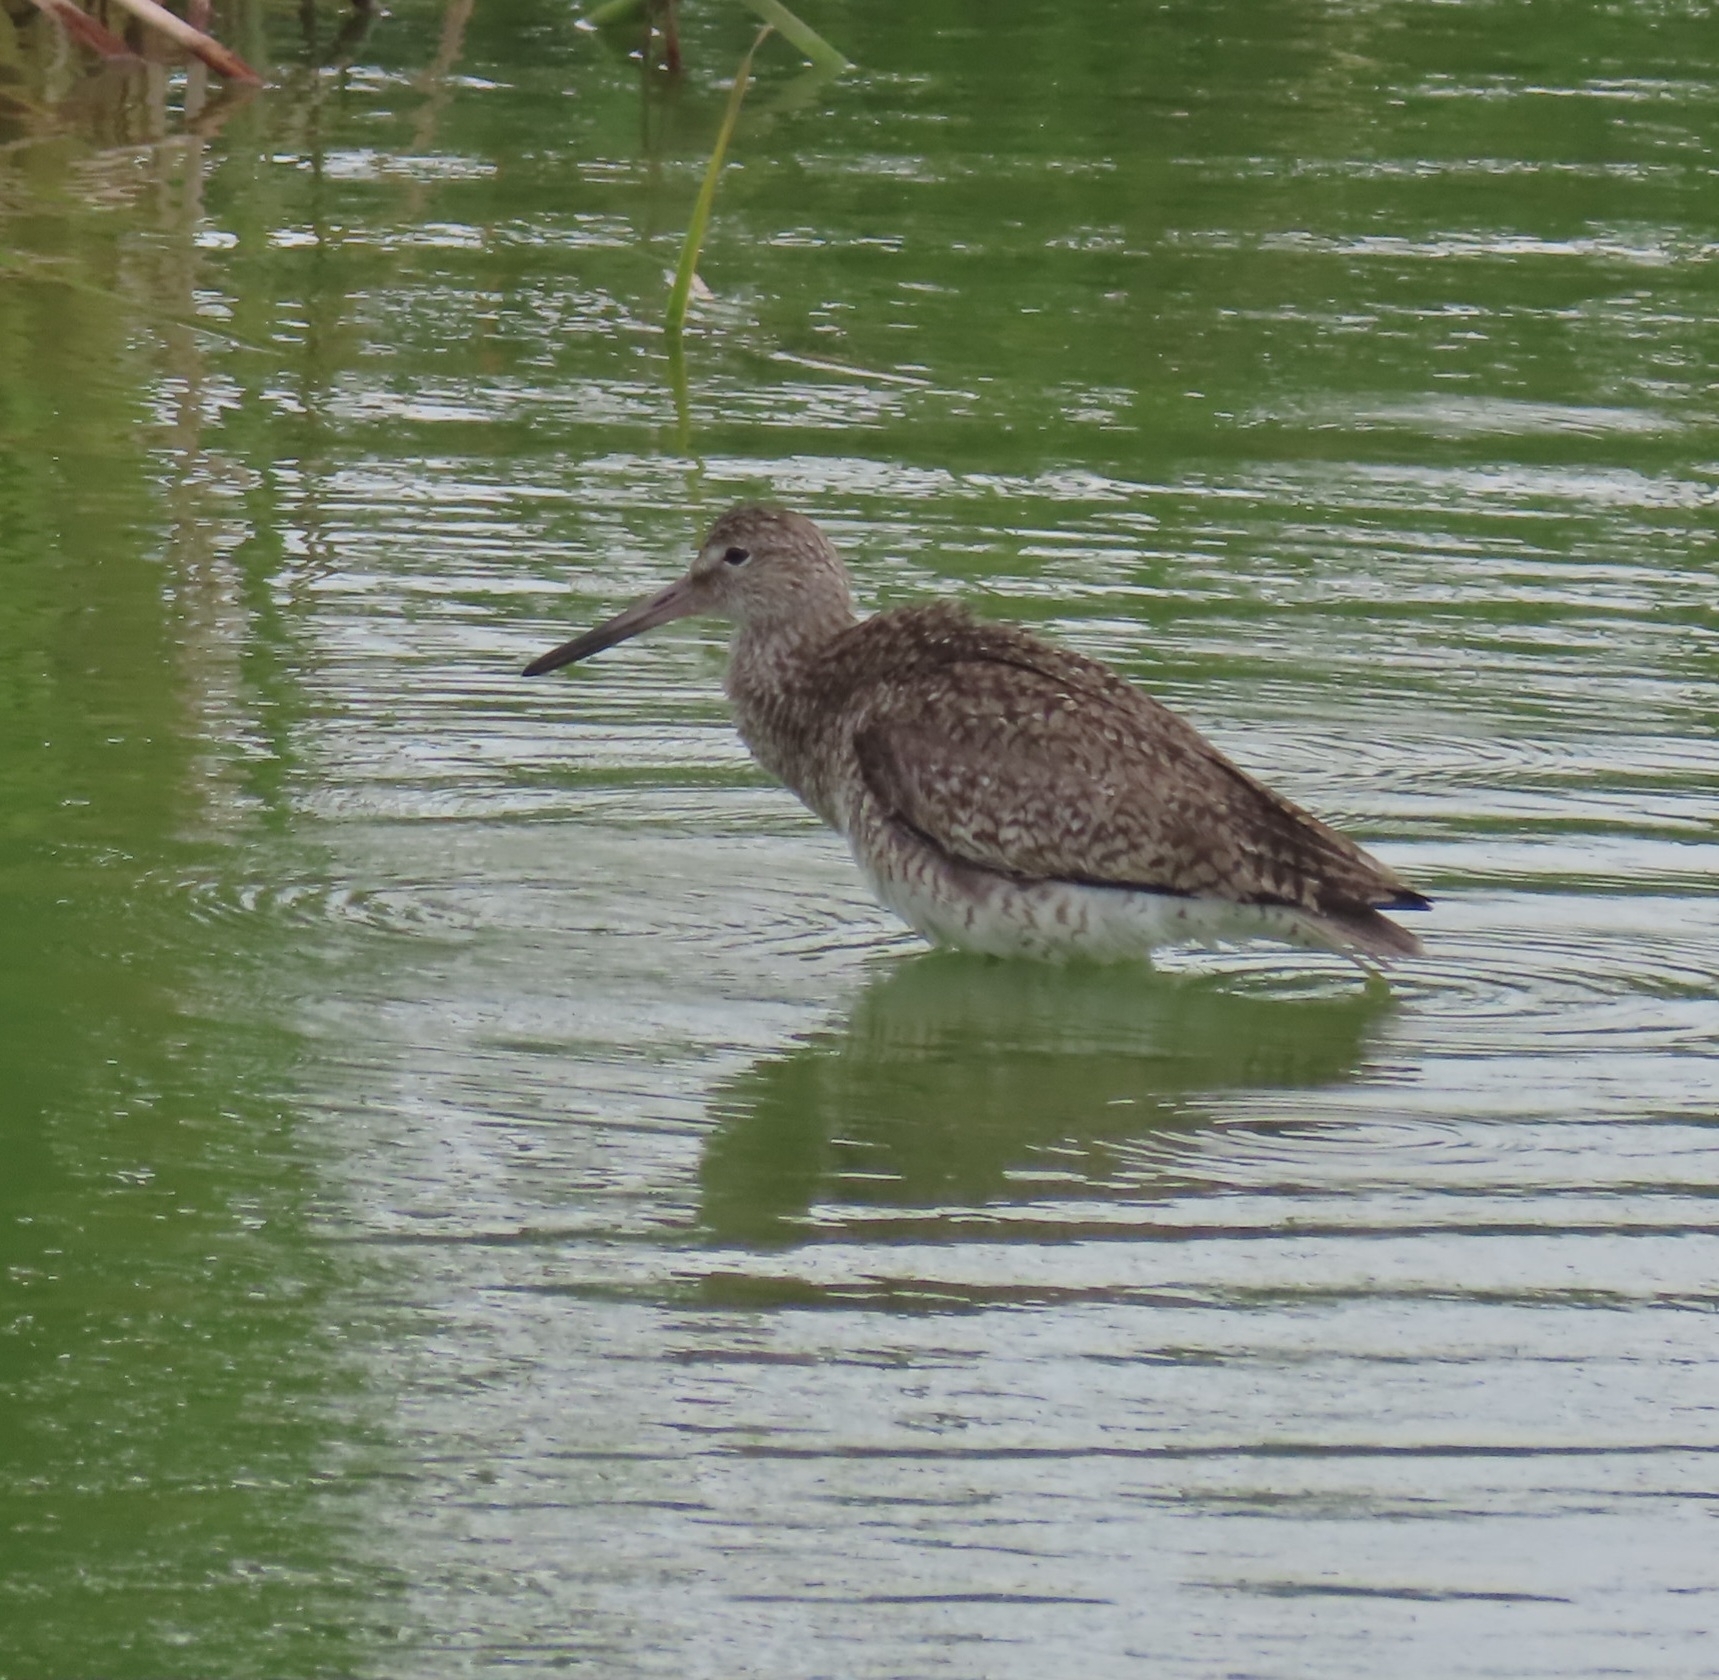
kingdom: Animalia
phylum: Chordata
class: Aves
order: Charadriiformes
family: Scolopacidae
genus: Tringa
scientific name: Tringa semipalmata
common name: Willet
